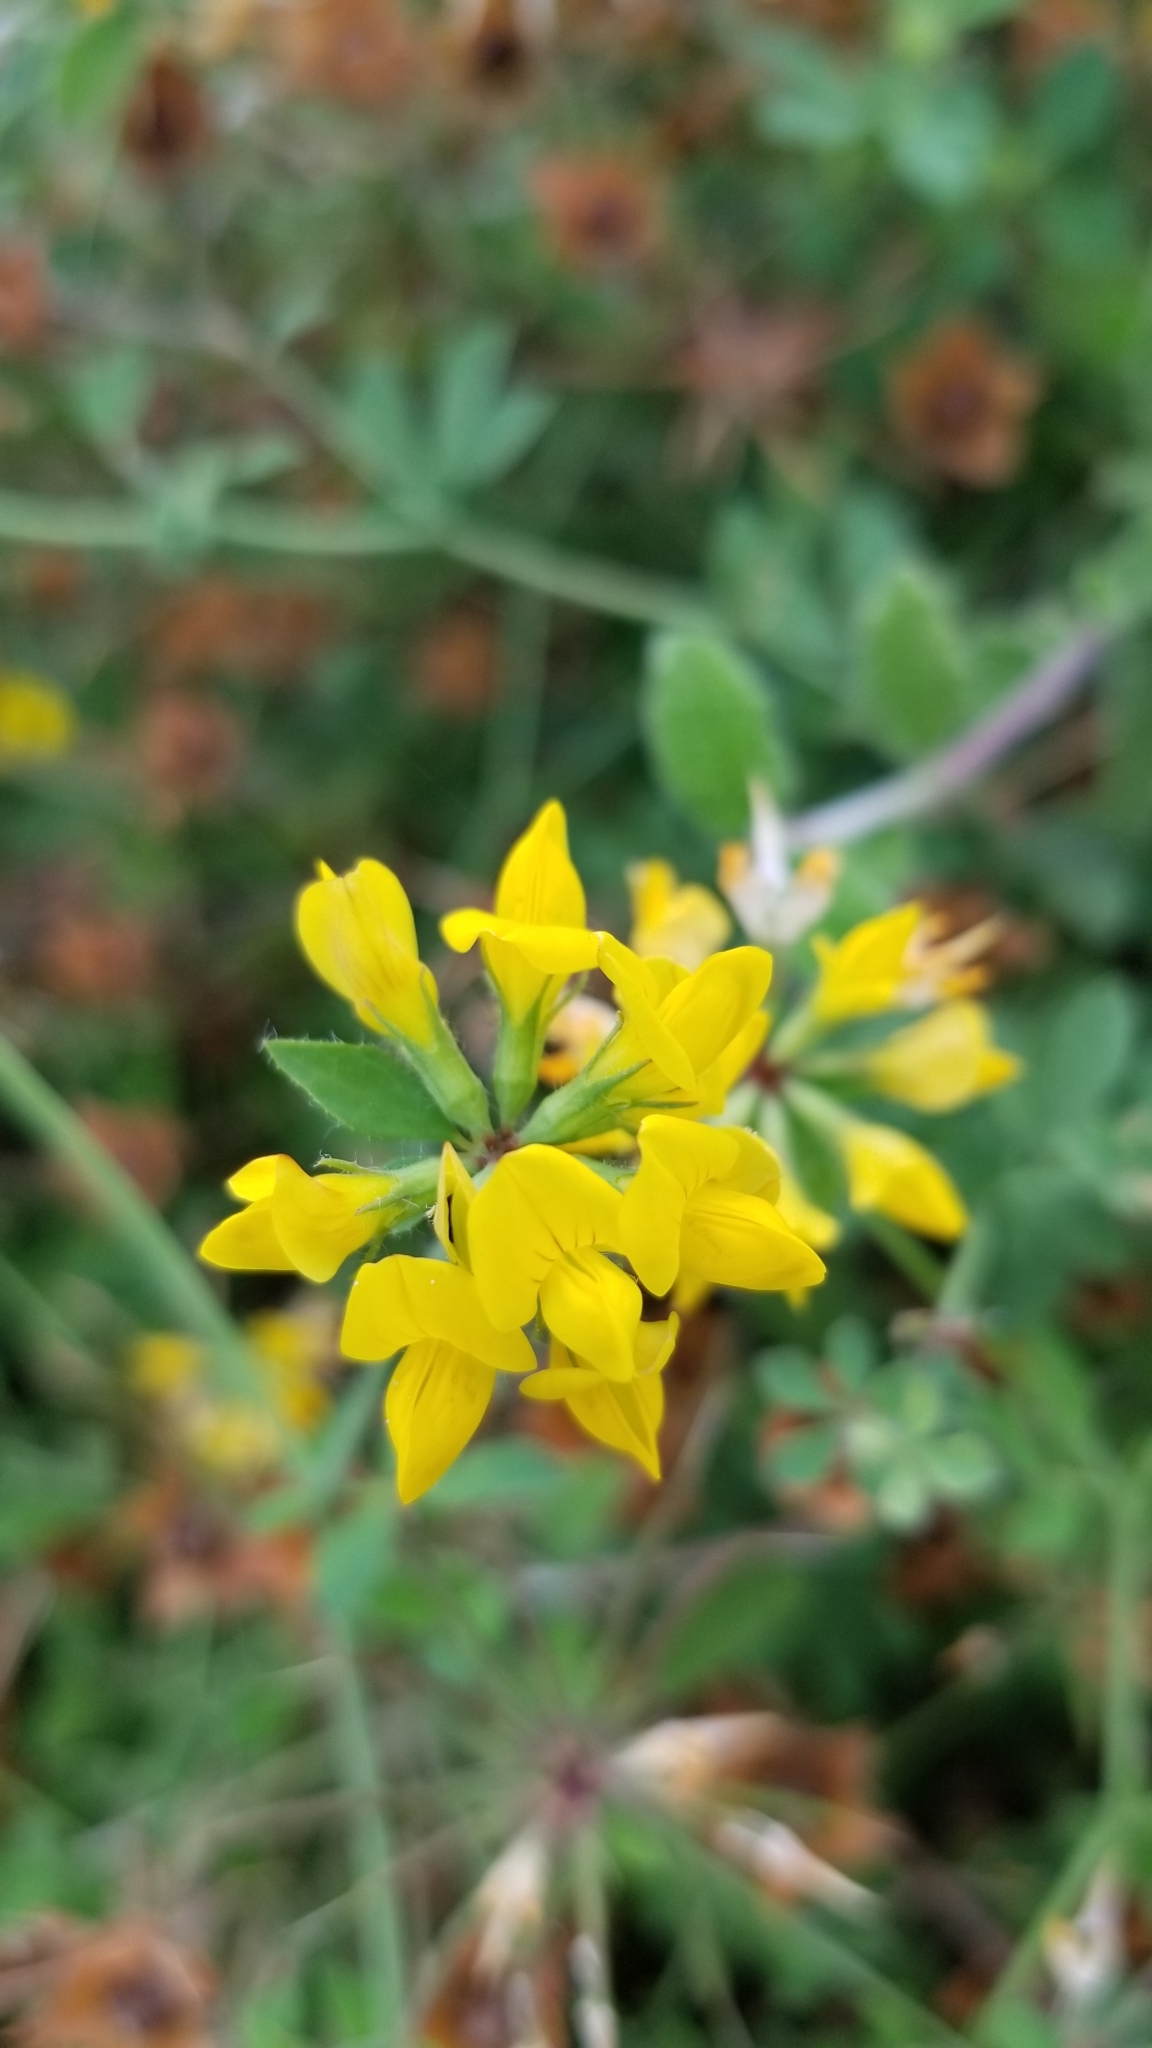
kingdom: Plantae
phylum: Tracheophyta
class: Magnoliopsida
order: Fabales
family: Fabaceae
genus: Lotus
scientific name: Lotus pedunculatus
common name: Greater birdsfoot-trefoil
